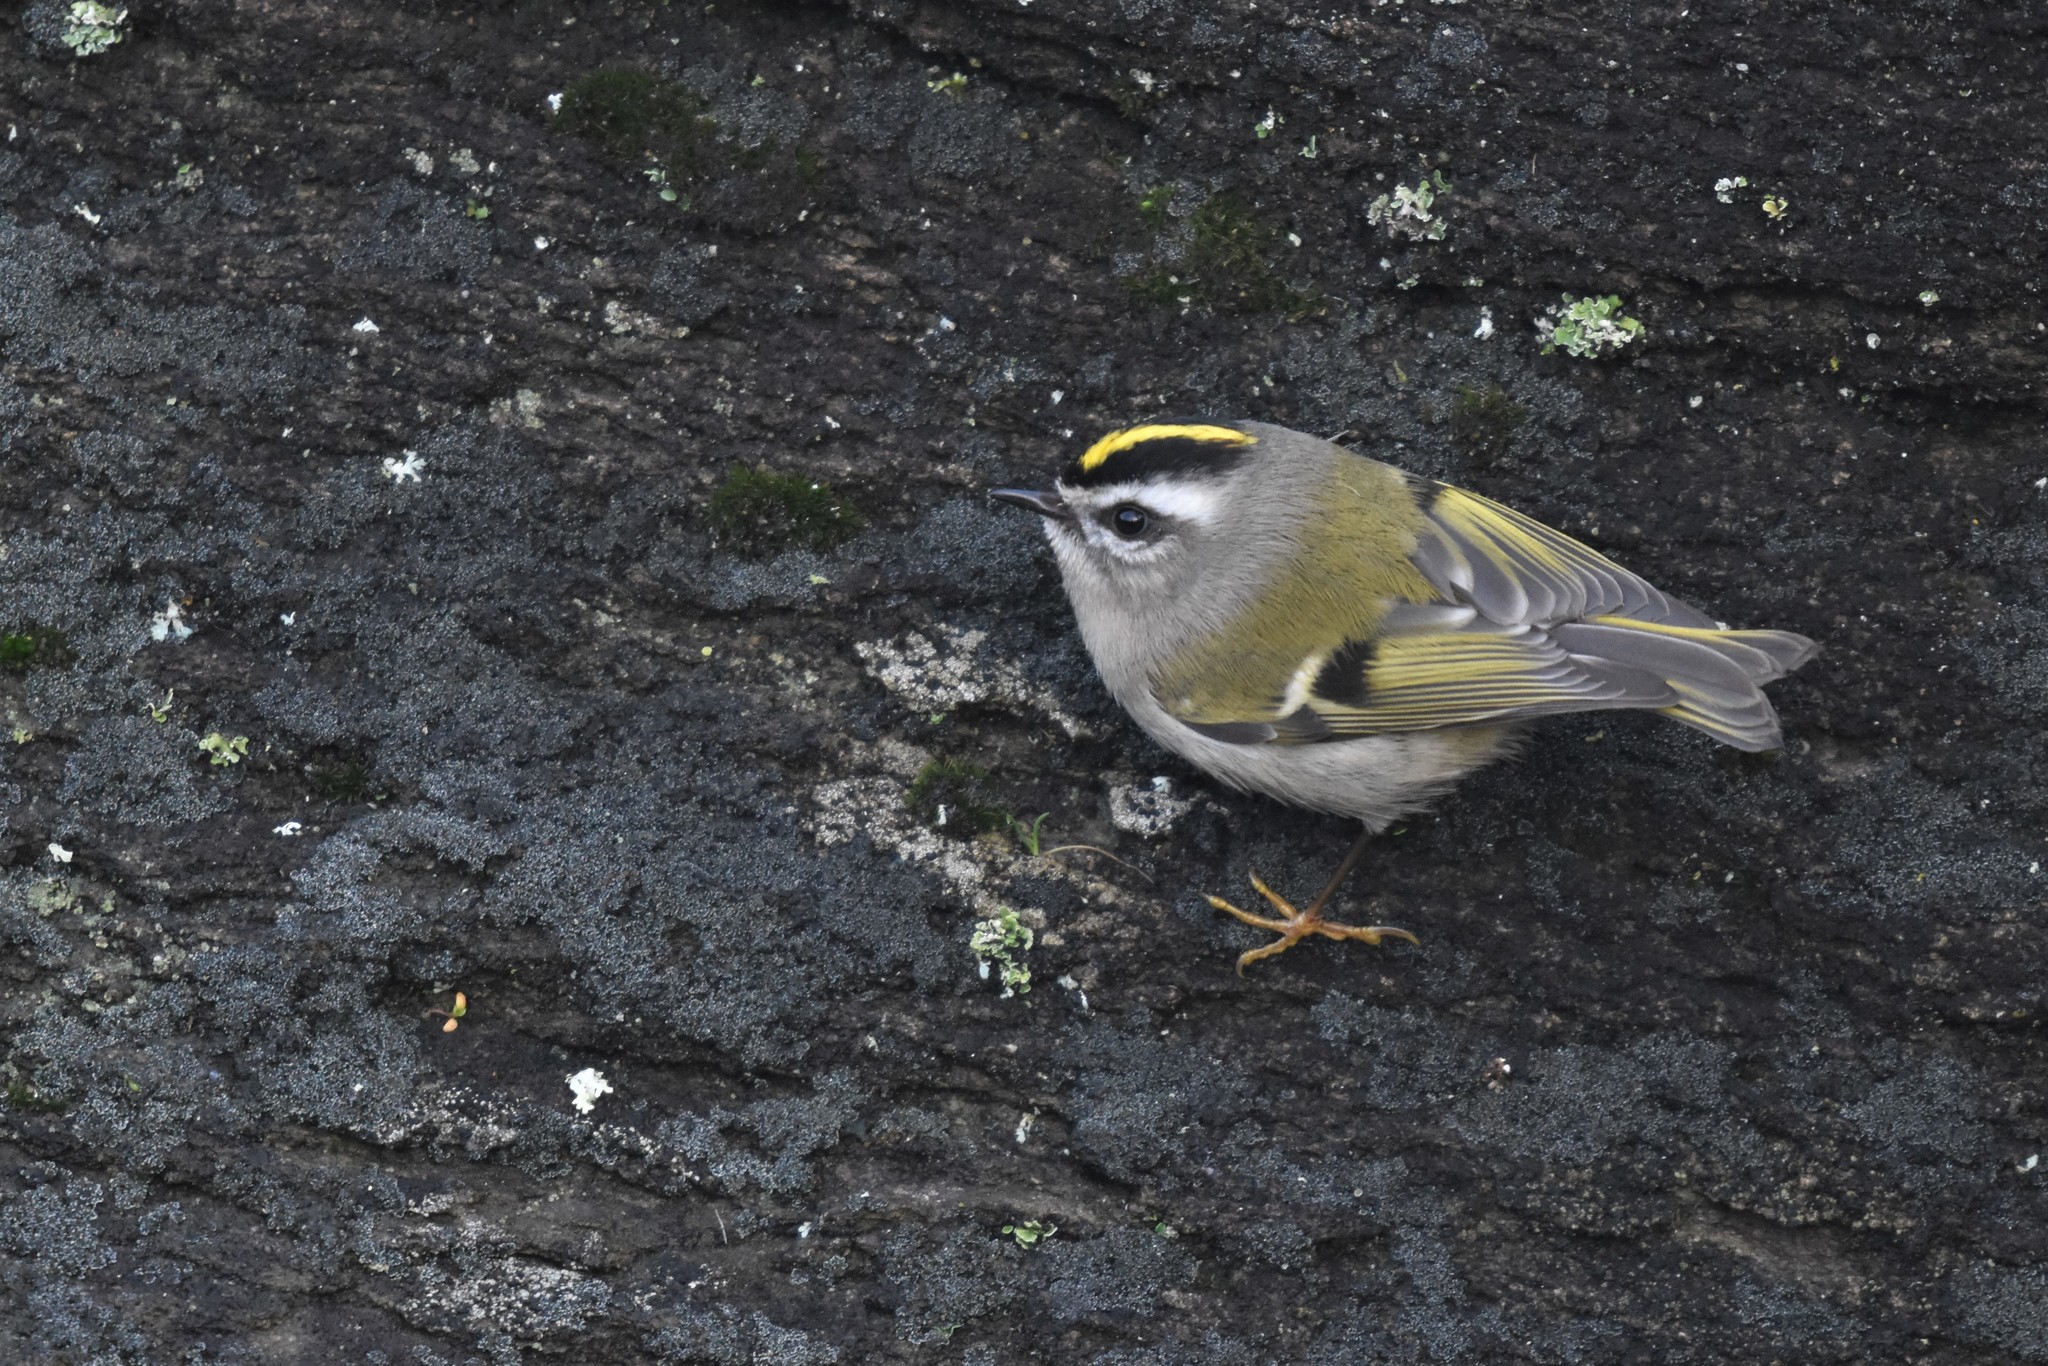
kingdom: Animalia
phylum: Chordata
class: Aves
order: Passeriformes
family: Regulidae
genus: Regulus
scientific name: Regulus satrapa
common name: Golden-crowned kinglet
